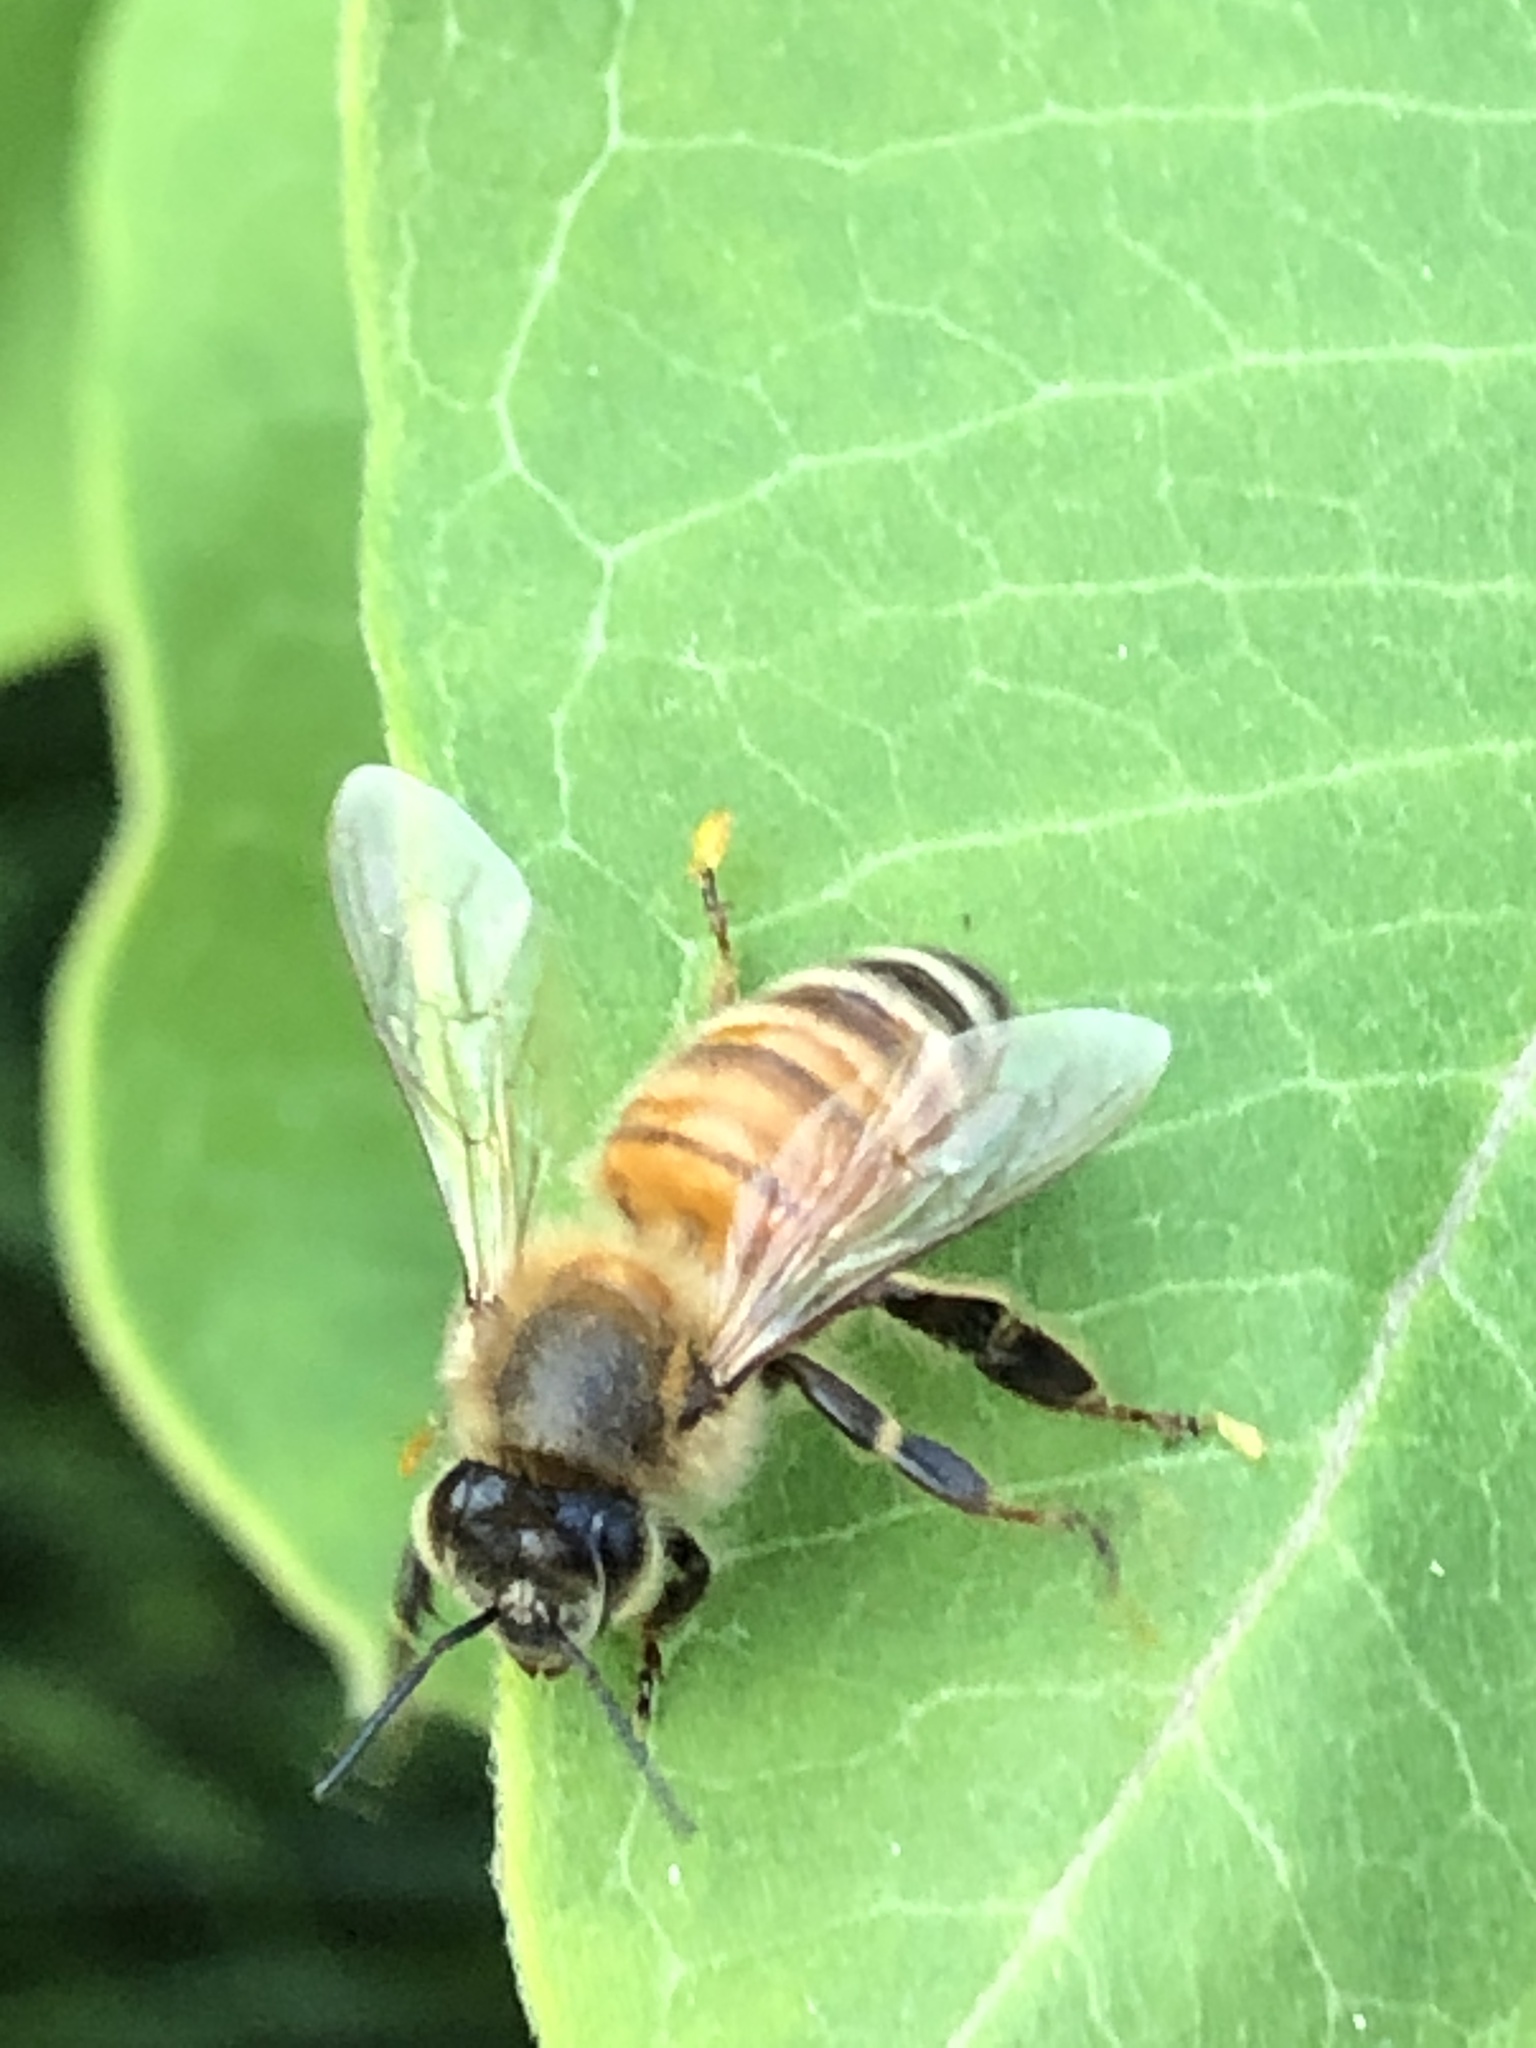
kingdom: Animalia
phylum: Arthropoda
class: Insecta
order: Hymenoptera
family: Apidae
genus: Apis
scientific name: Apis mellifera
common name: Honey bee
